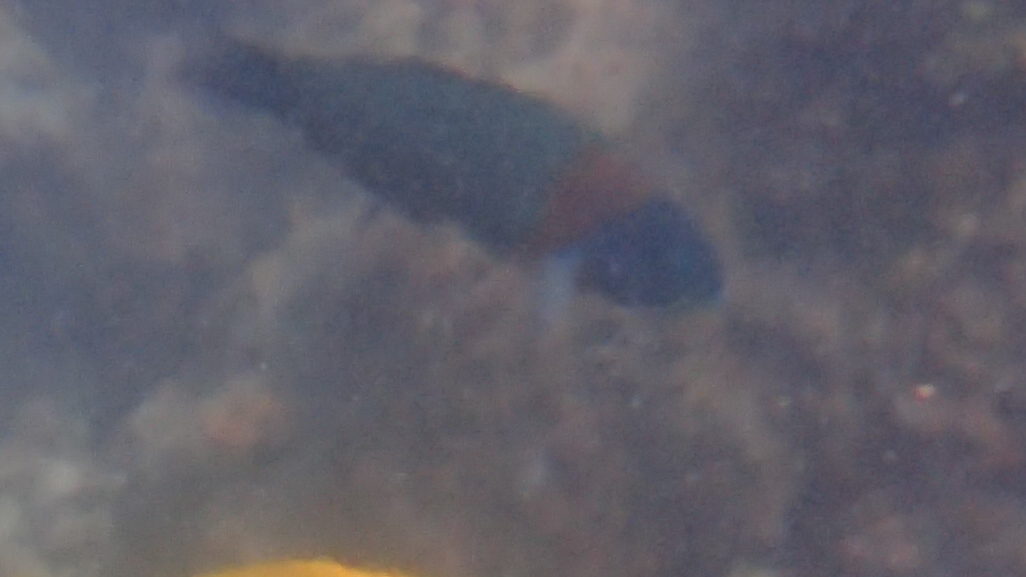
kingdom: Animalia
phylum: Chordata
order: Perciformes
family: Labridae
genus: Thalassoma
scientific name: Thalassoma duperrey
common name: Saddle wrasse
